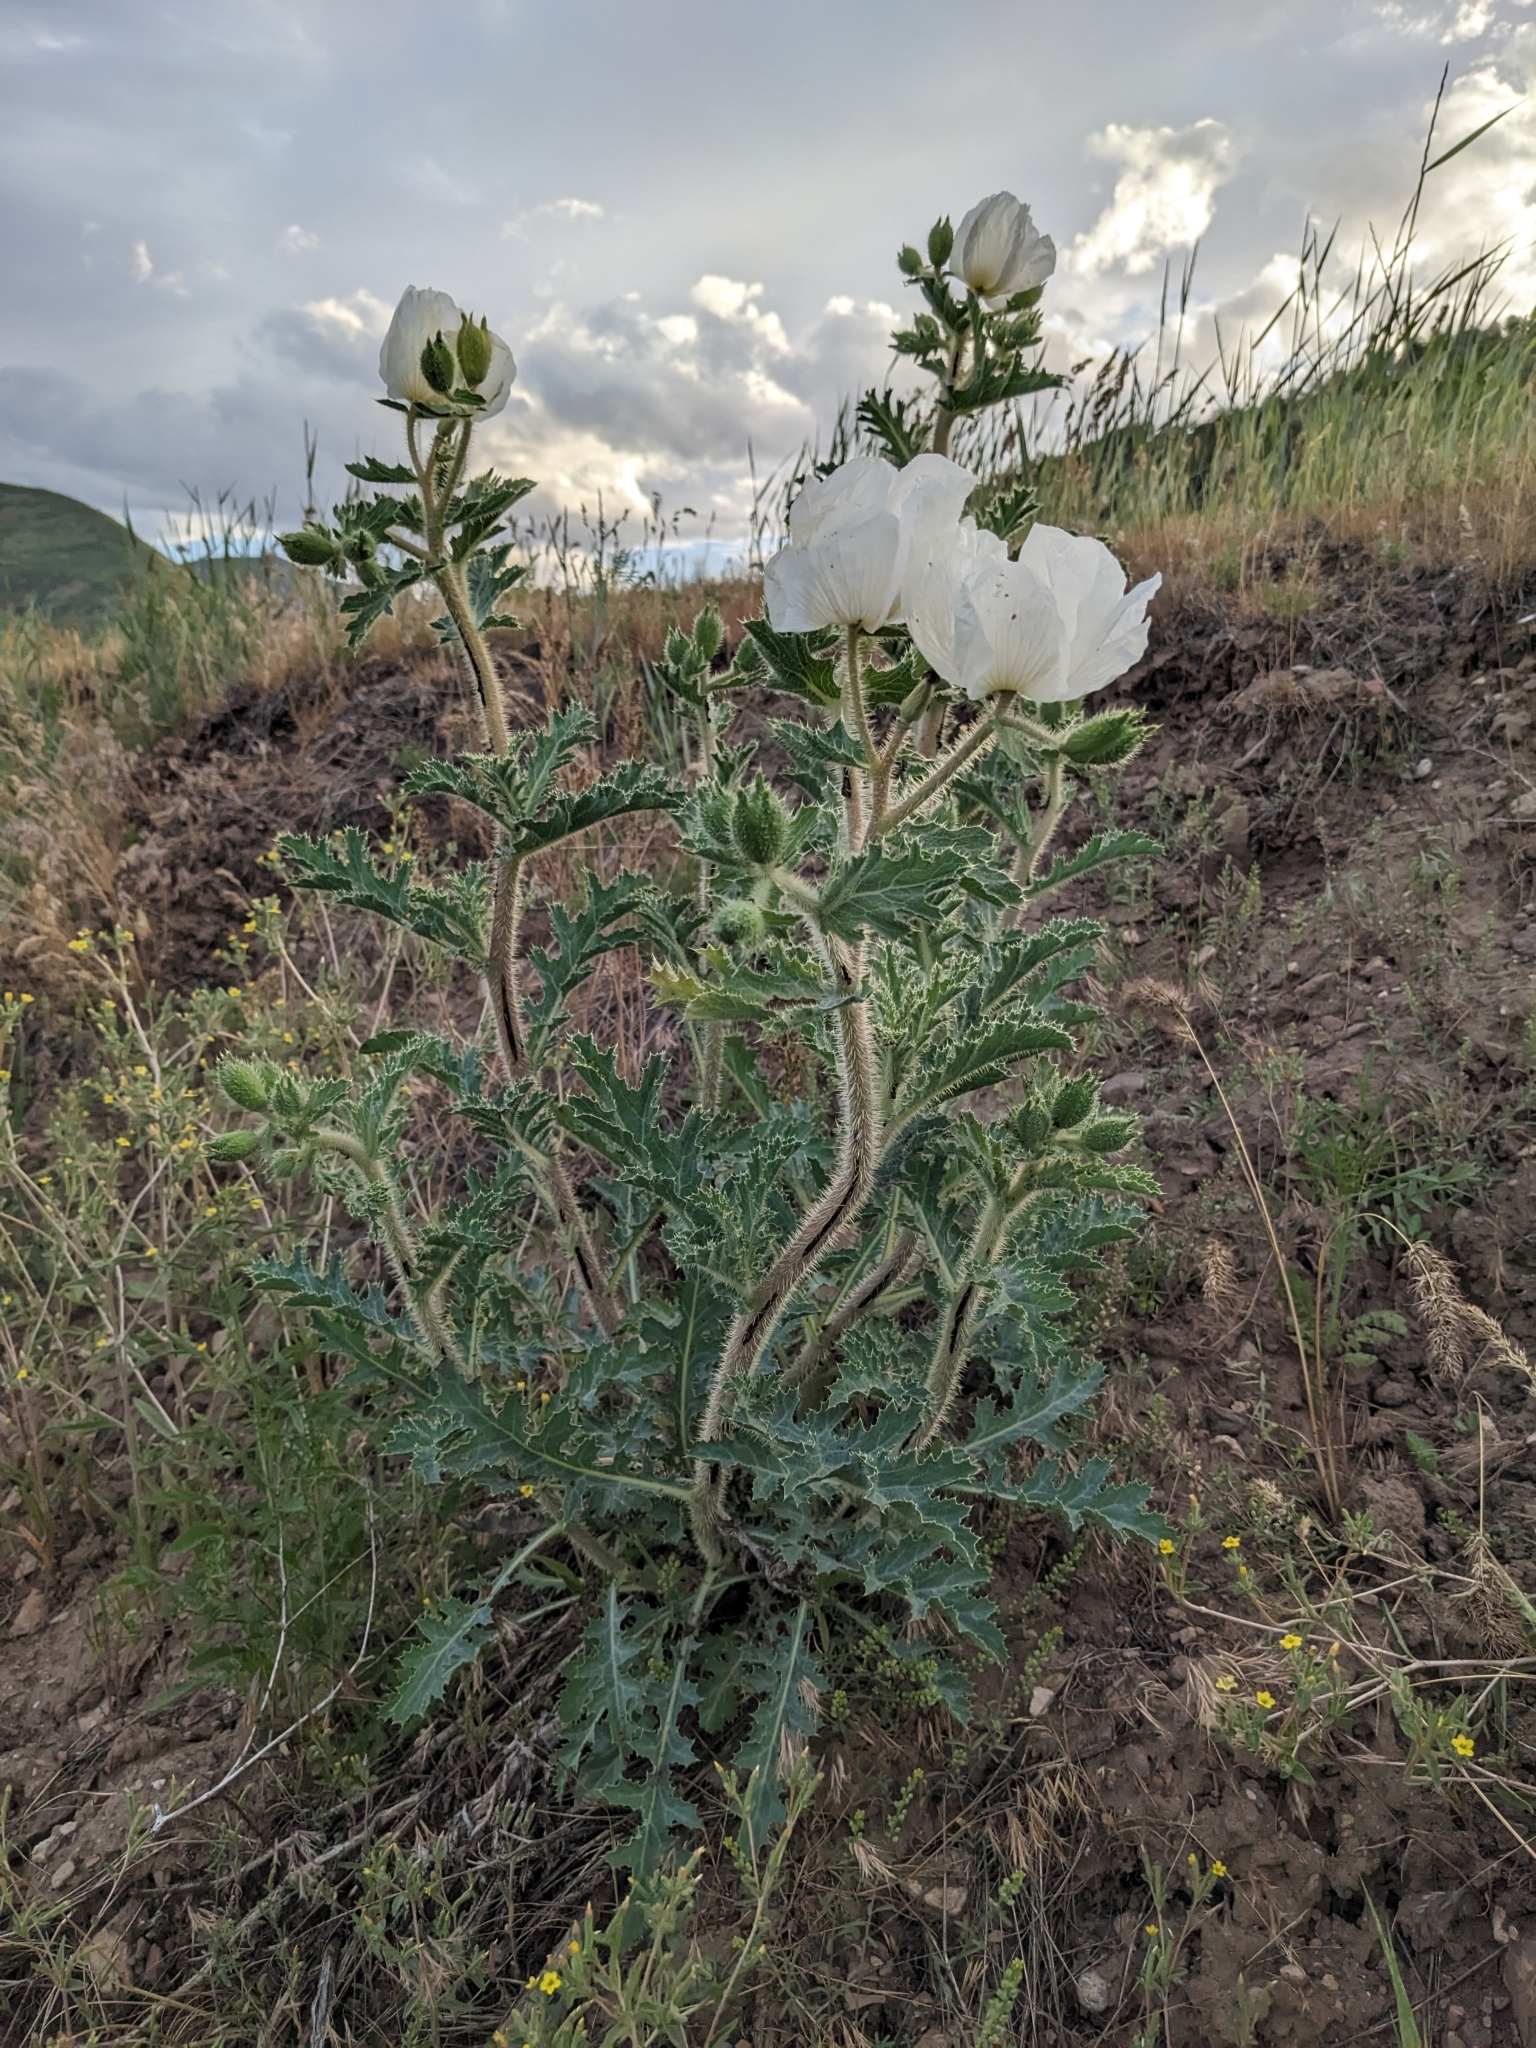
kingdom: Plantae
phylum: Tracheophyta
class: Magnoliopsida
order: Ranunculales
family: Papaveraceae
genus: Argemone
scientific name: Argemone munita
